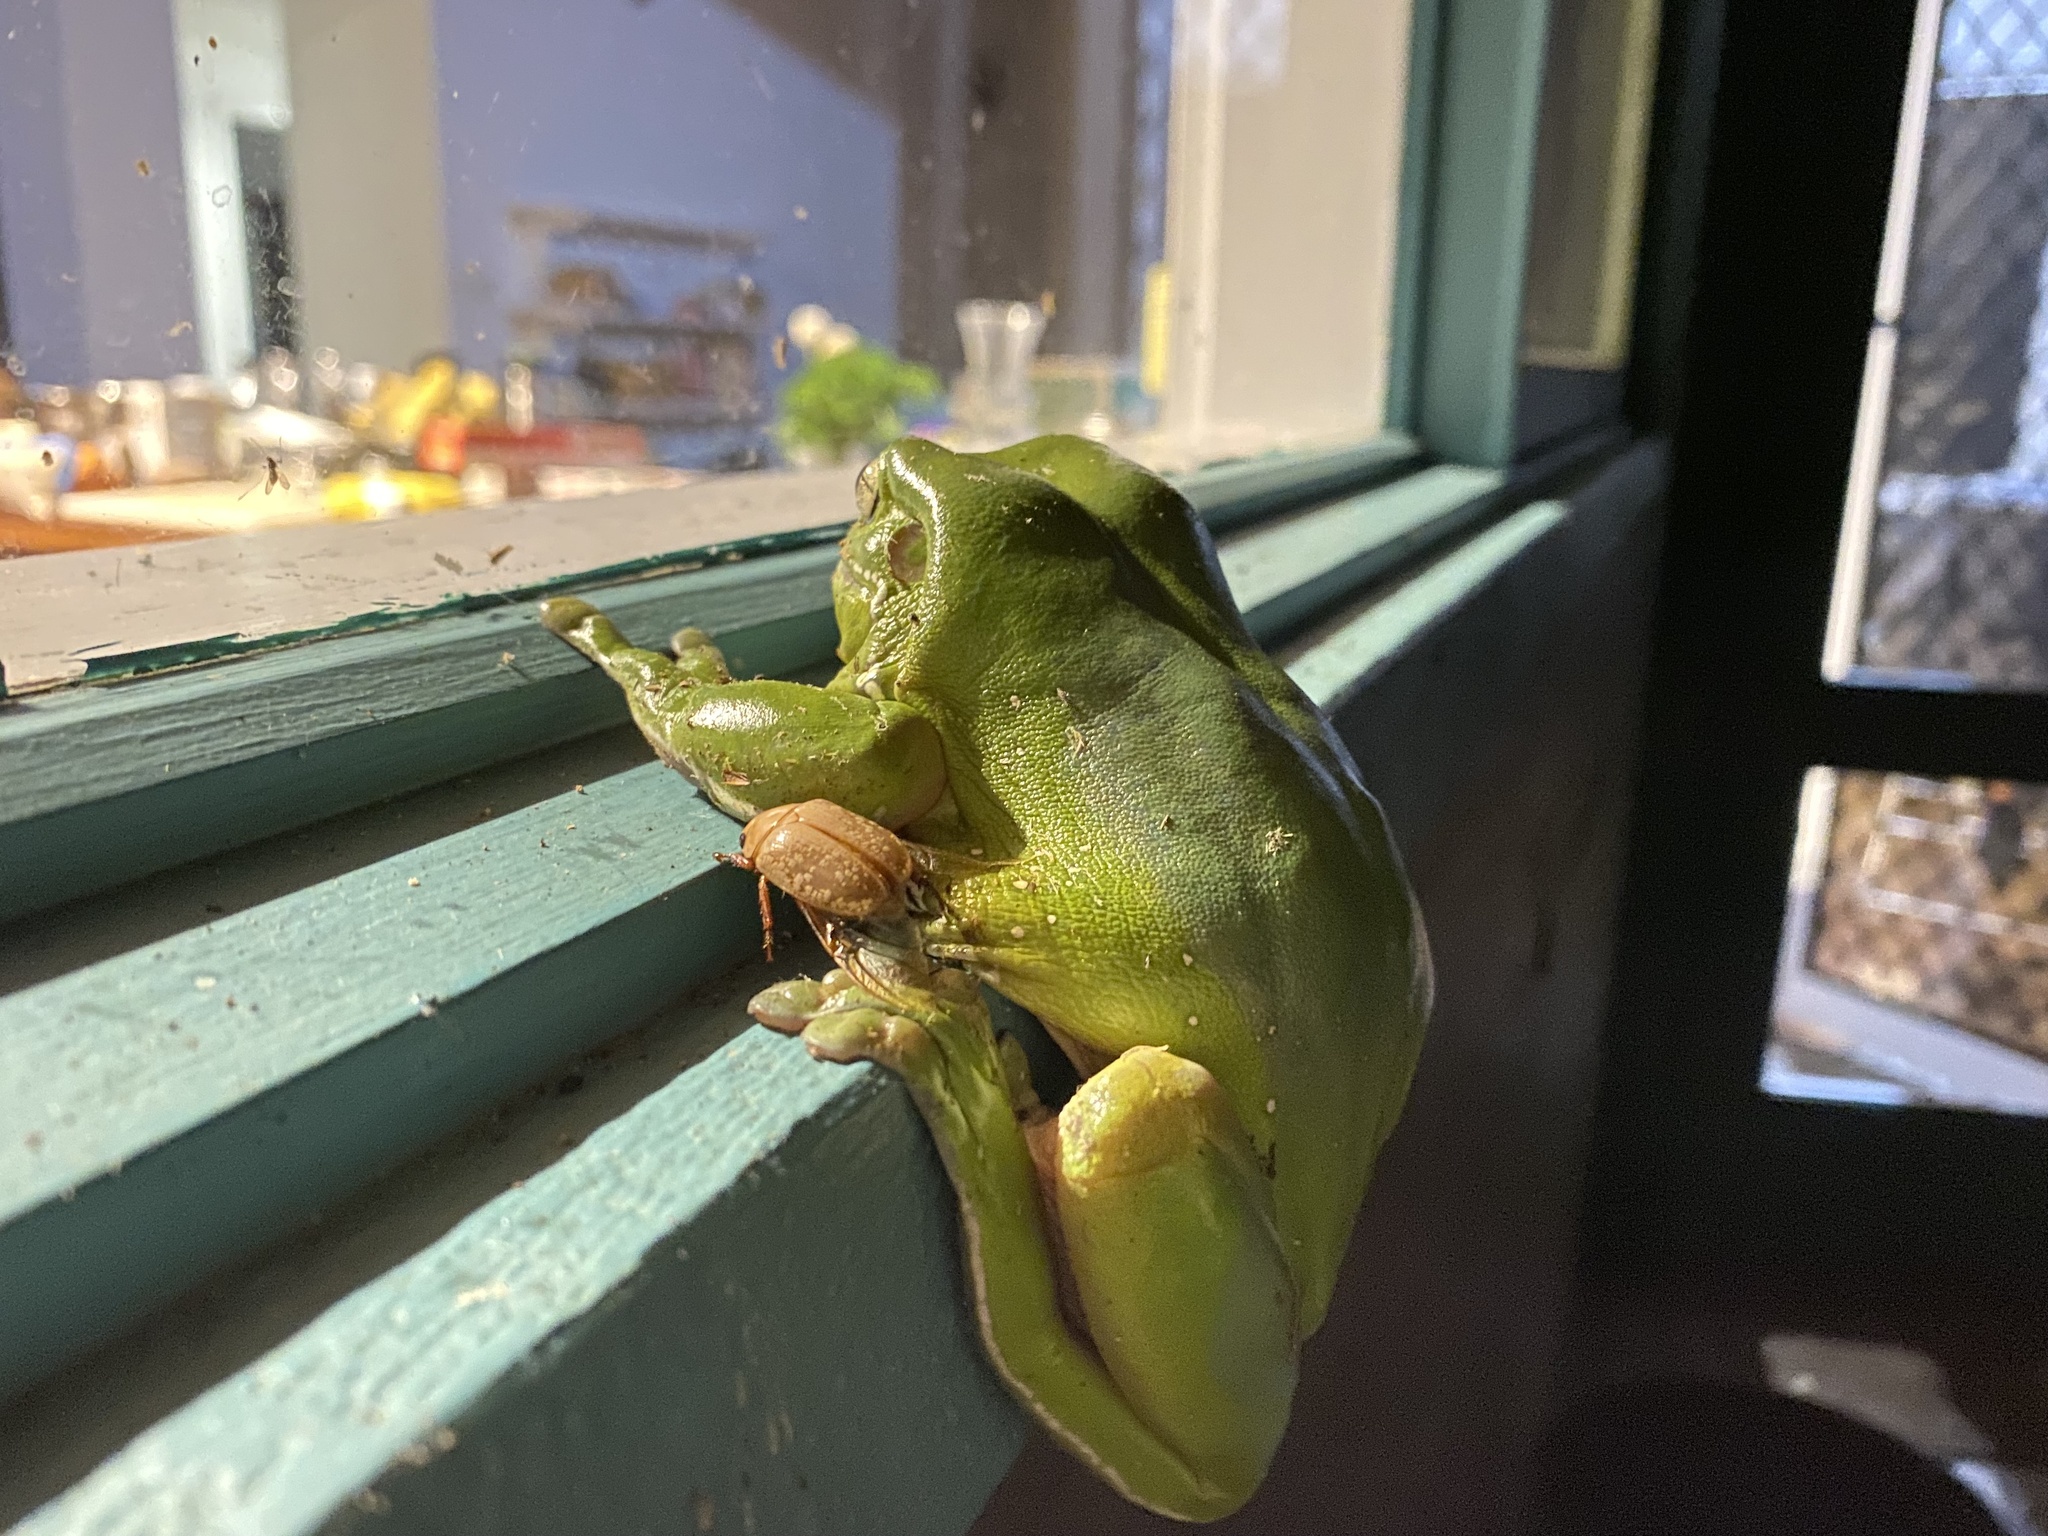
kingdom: Animalia
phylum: Arthropoda
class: Insecta
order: Coleoptera
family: Scarabaeidae
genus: Anoplognathus
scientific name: Anoplognathus concolor
